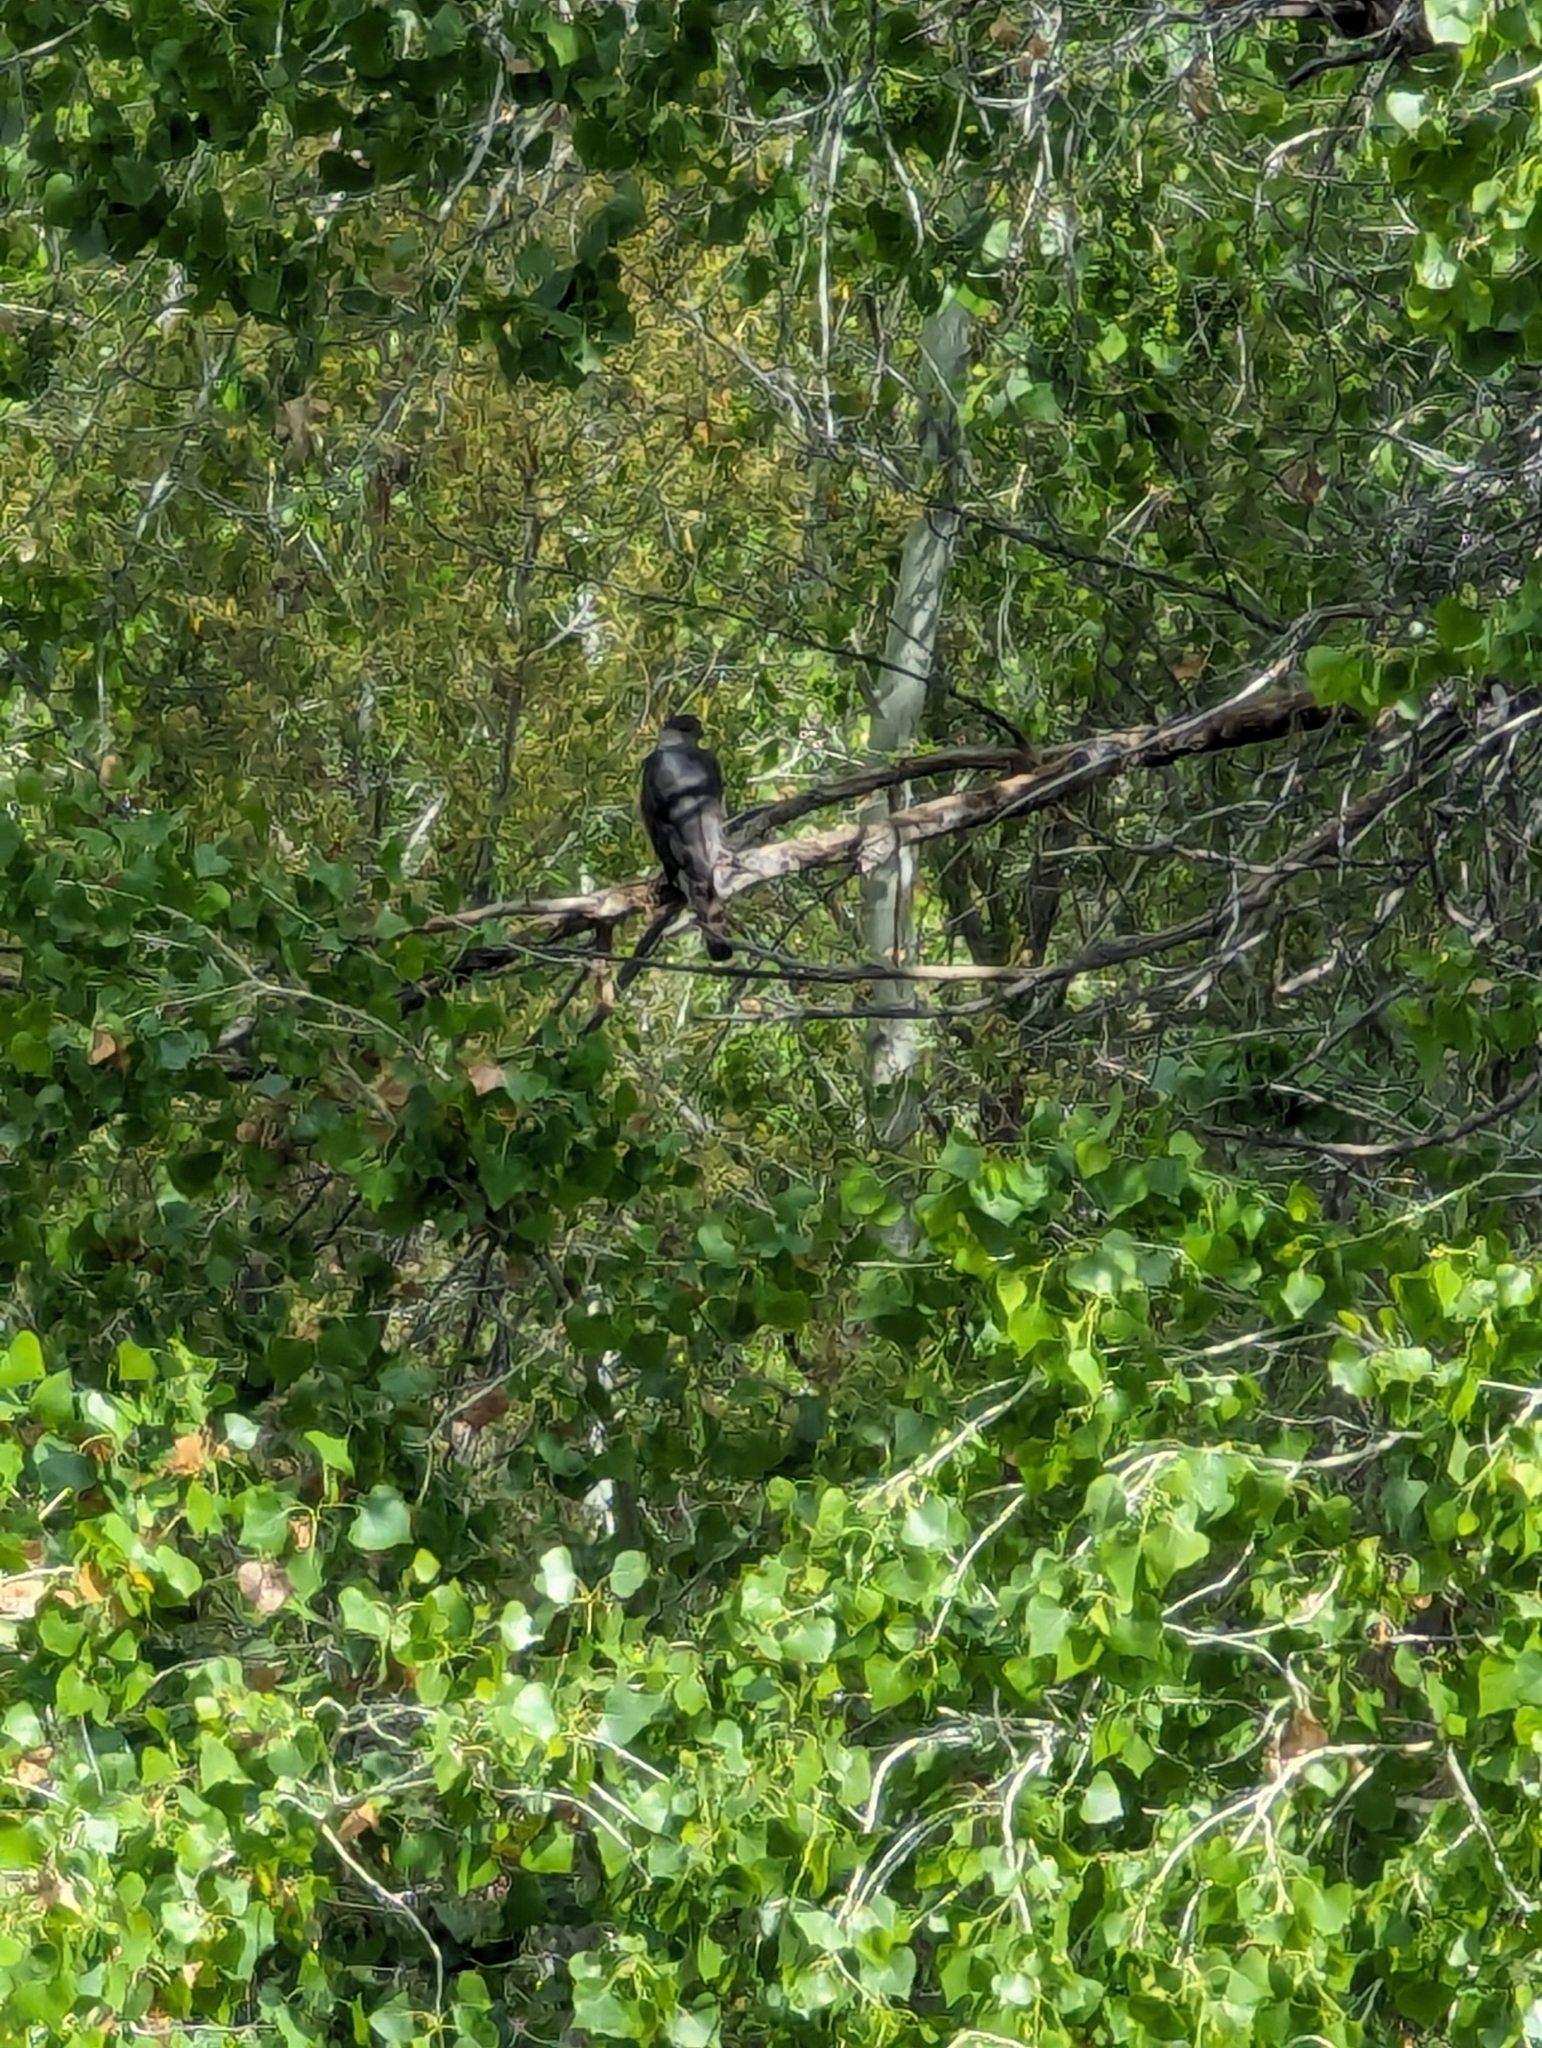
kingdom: Animalia
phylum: Chordata
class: Aves
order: Accipitriformes
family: Accipitridae
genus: Accipiter
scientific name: Accipiter cooperii
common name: Cooper's hawk
